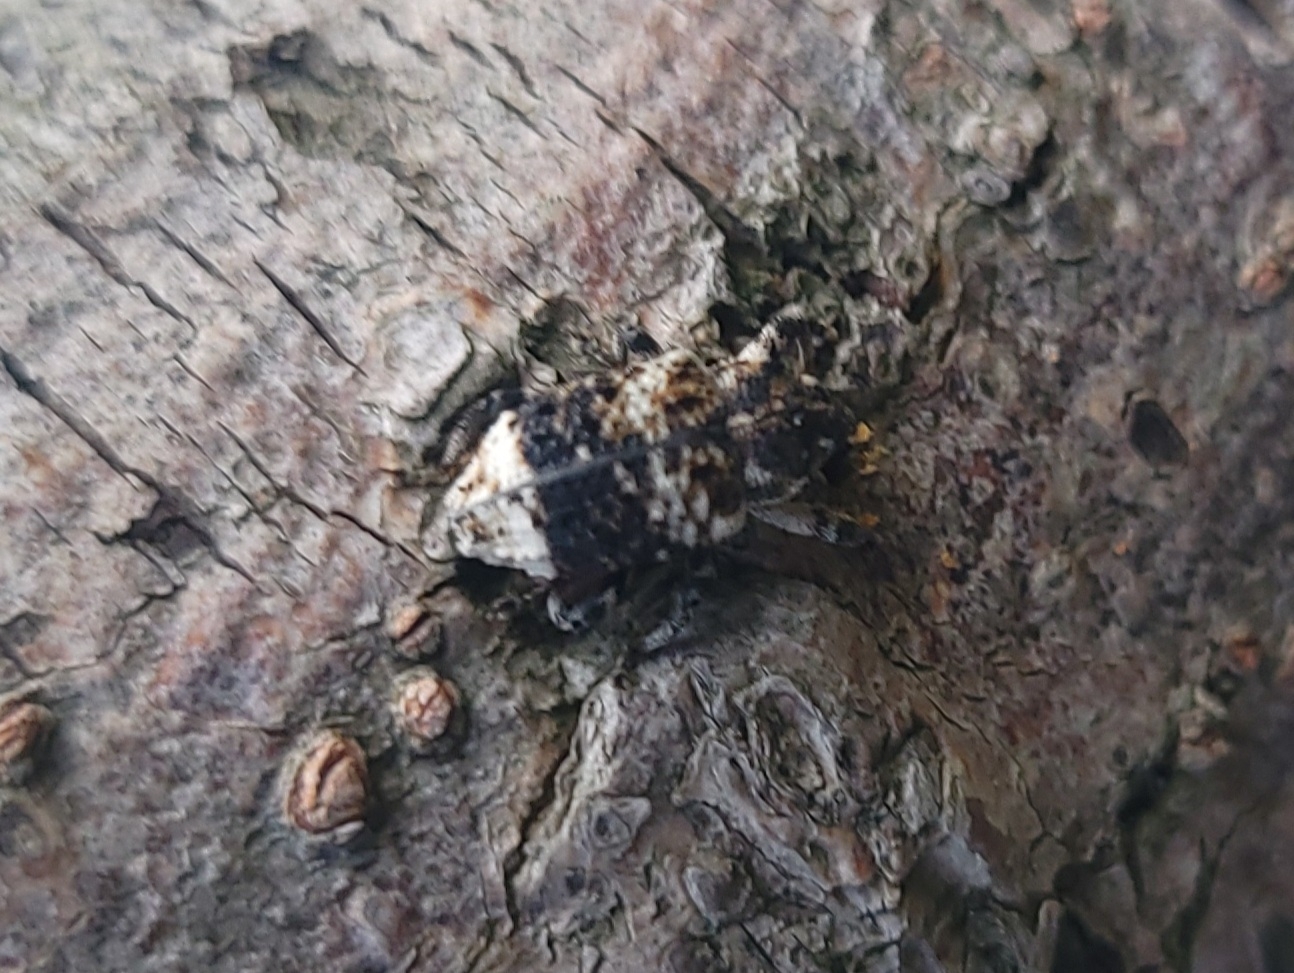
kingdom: Animalia
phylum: Arthropoda
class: Insecta
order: Coleoptera
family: Curculionidae
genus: Cryptorhynchus
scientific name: Cryptorhynchus lapathi
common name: Weevil
